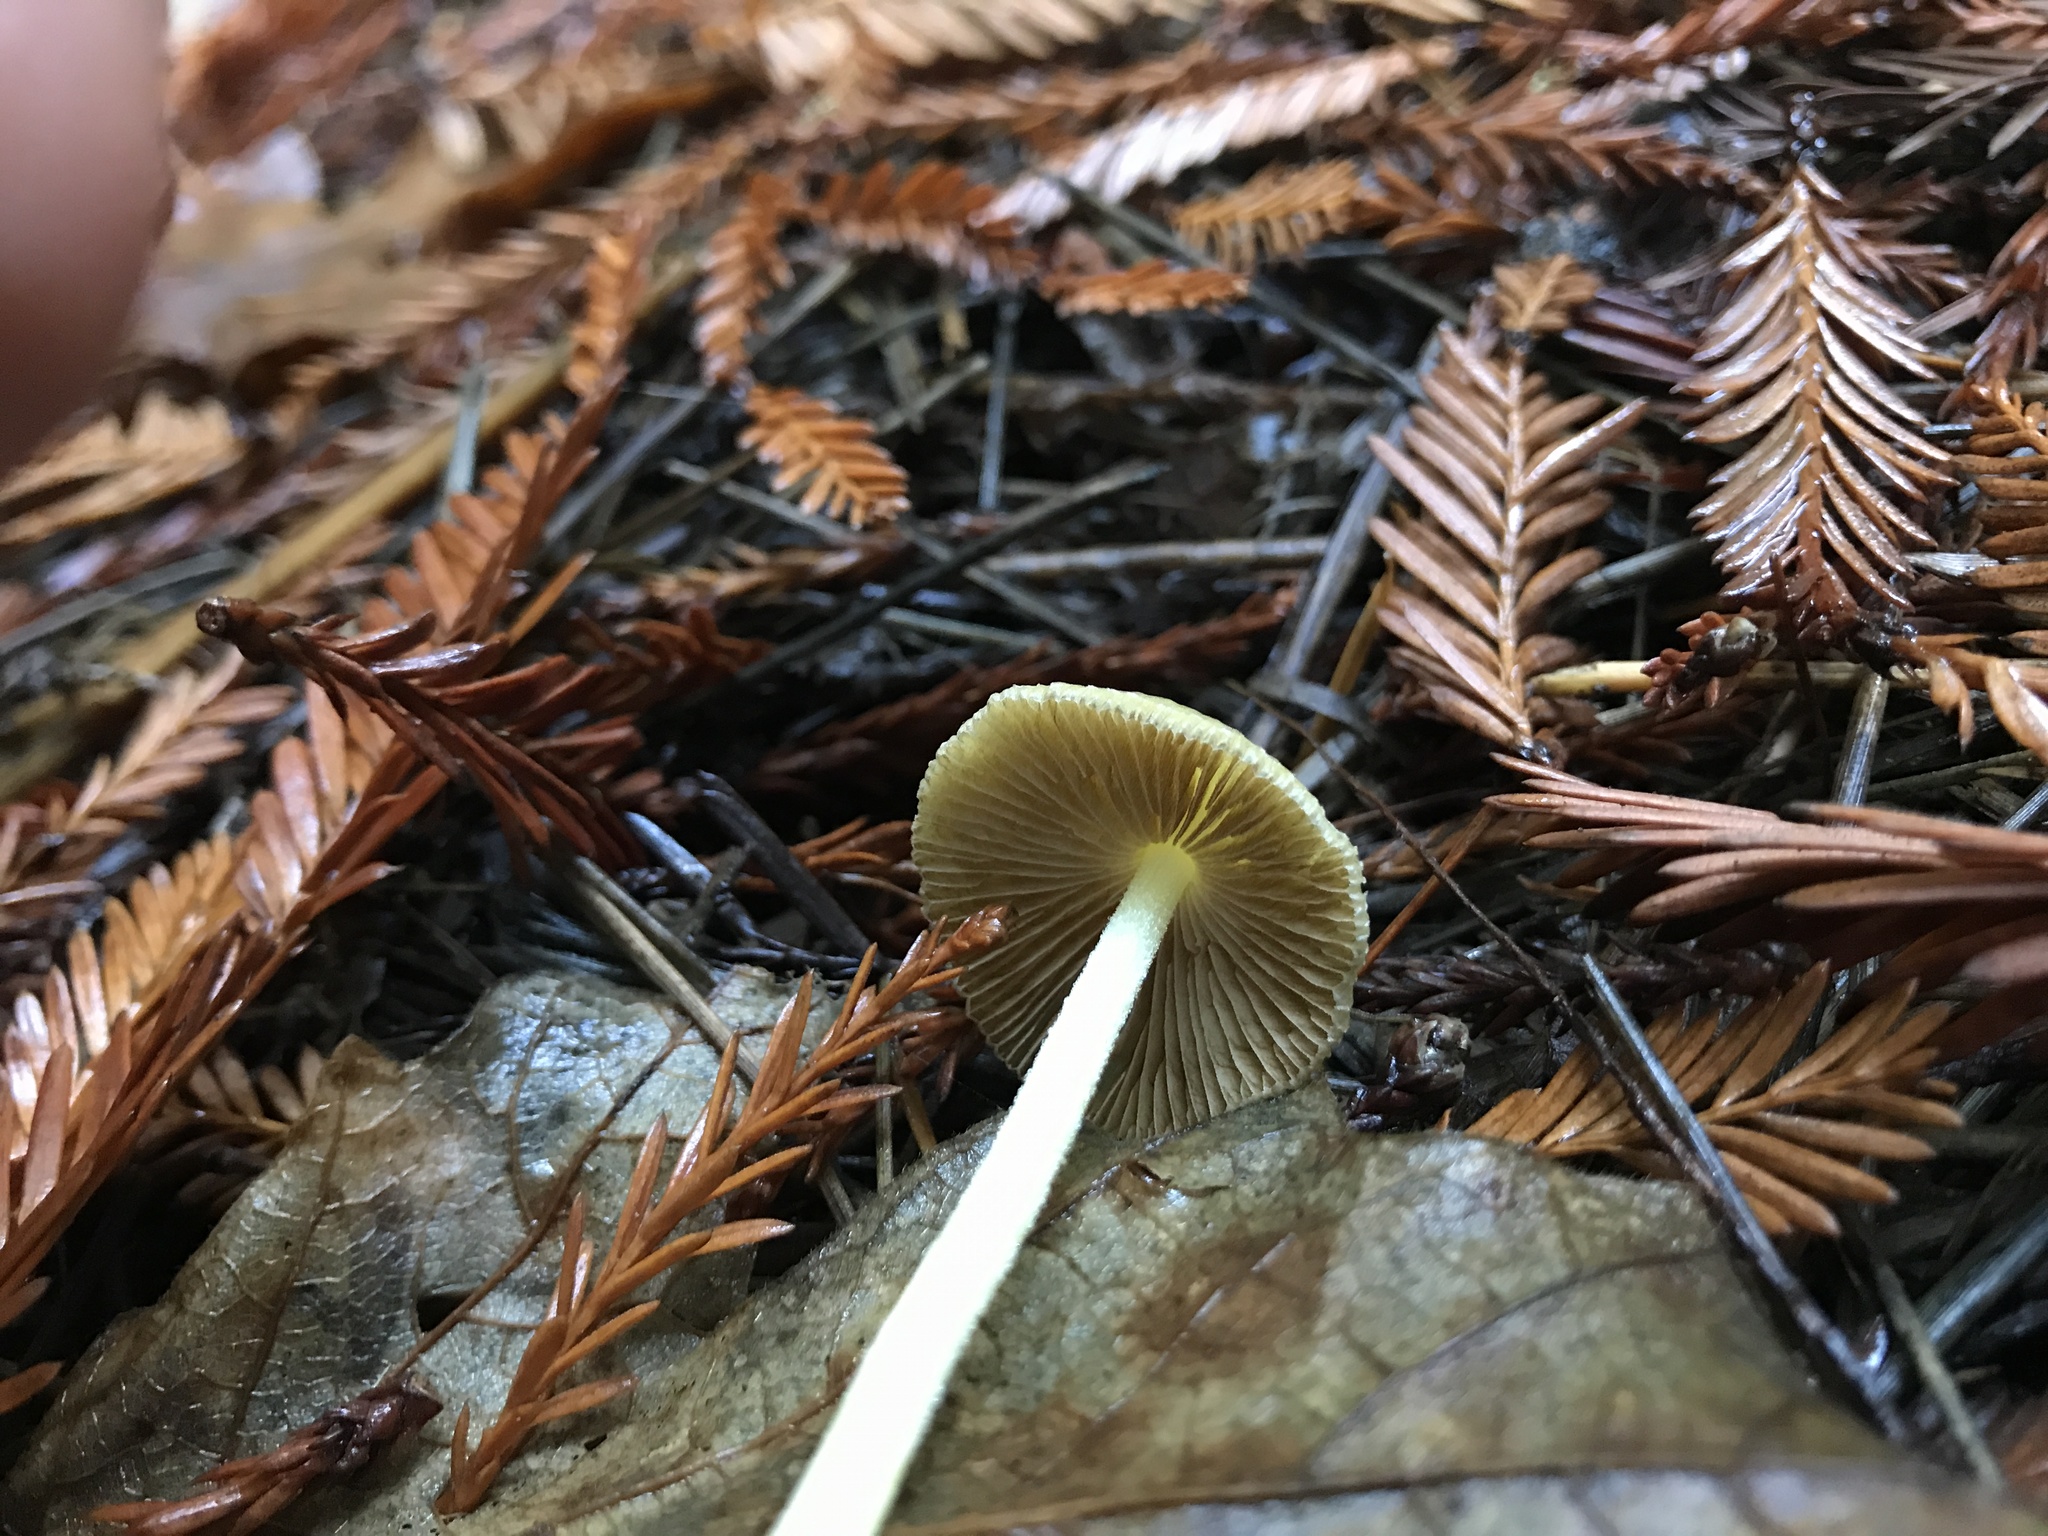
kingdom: Fungi
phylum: Basidiomycota
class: Agaricomycetes
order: Agaricales
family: Bolbitiaceae
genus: Bolbitius
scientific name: Bolbitius titubans
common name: Yellow fieldcap
